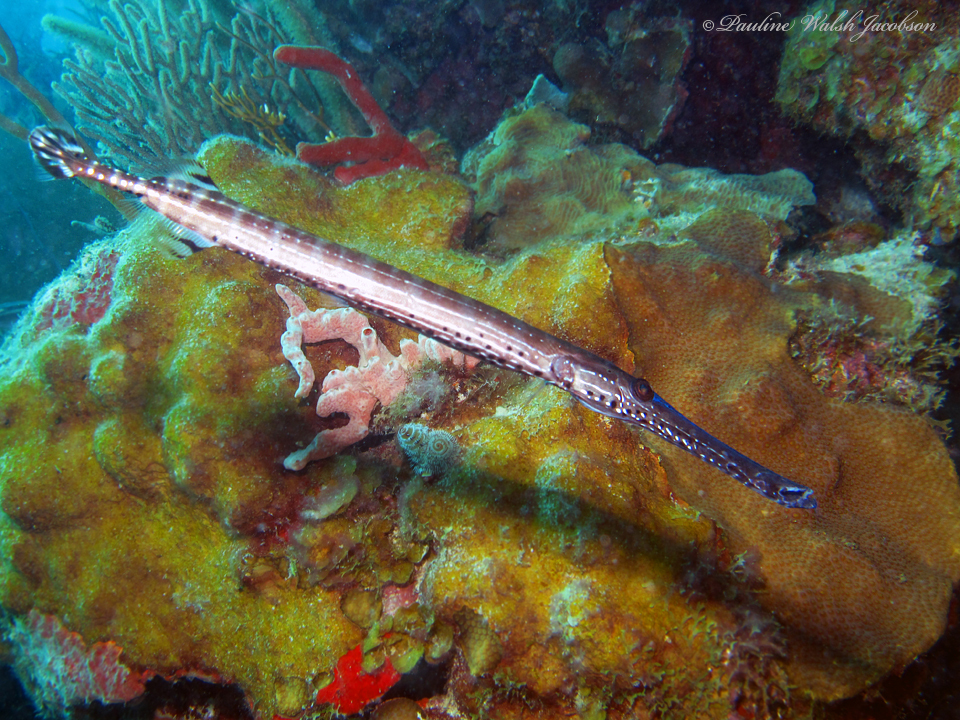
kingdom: Animalia
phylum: Chordata
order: Syngnathiformes
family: Aulostomidae
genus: Aulostomus
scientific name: Aulostomus maculatus
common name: West atlantic trumpetfish
